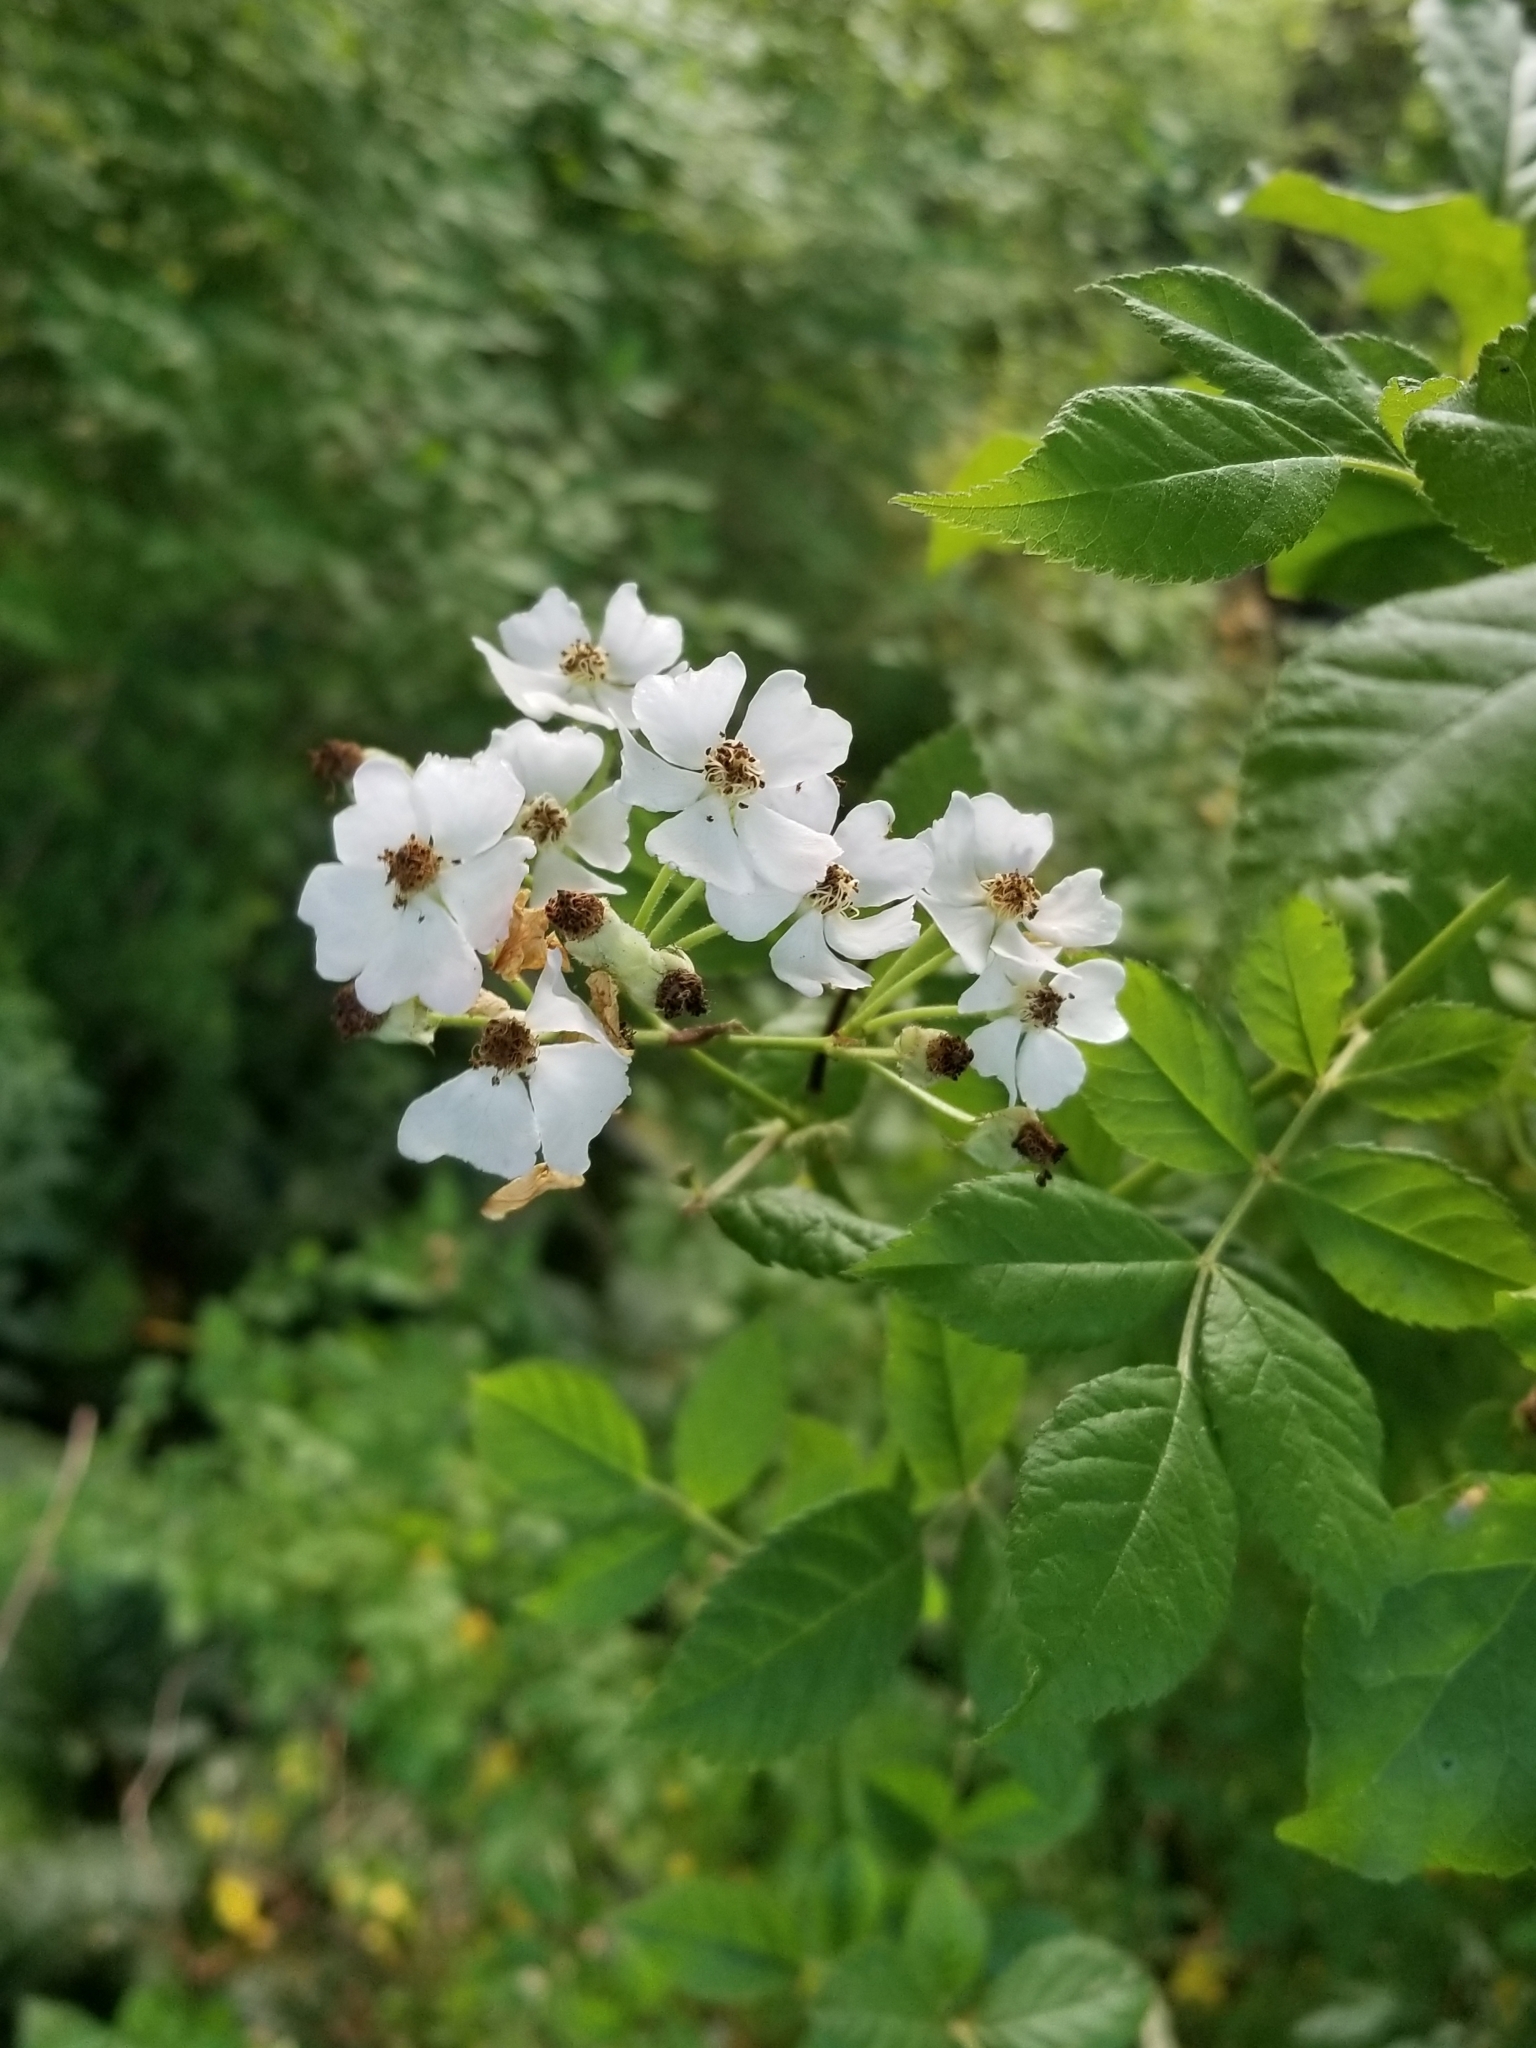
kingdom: Plantae
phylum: Tracheophyta
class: Magnoliopsida
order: Rosales
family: Rosaceae
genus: Rosa
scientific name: Rosa multiflora
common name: Multiflora rose
